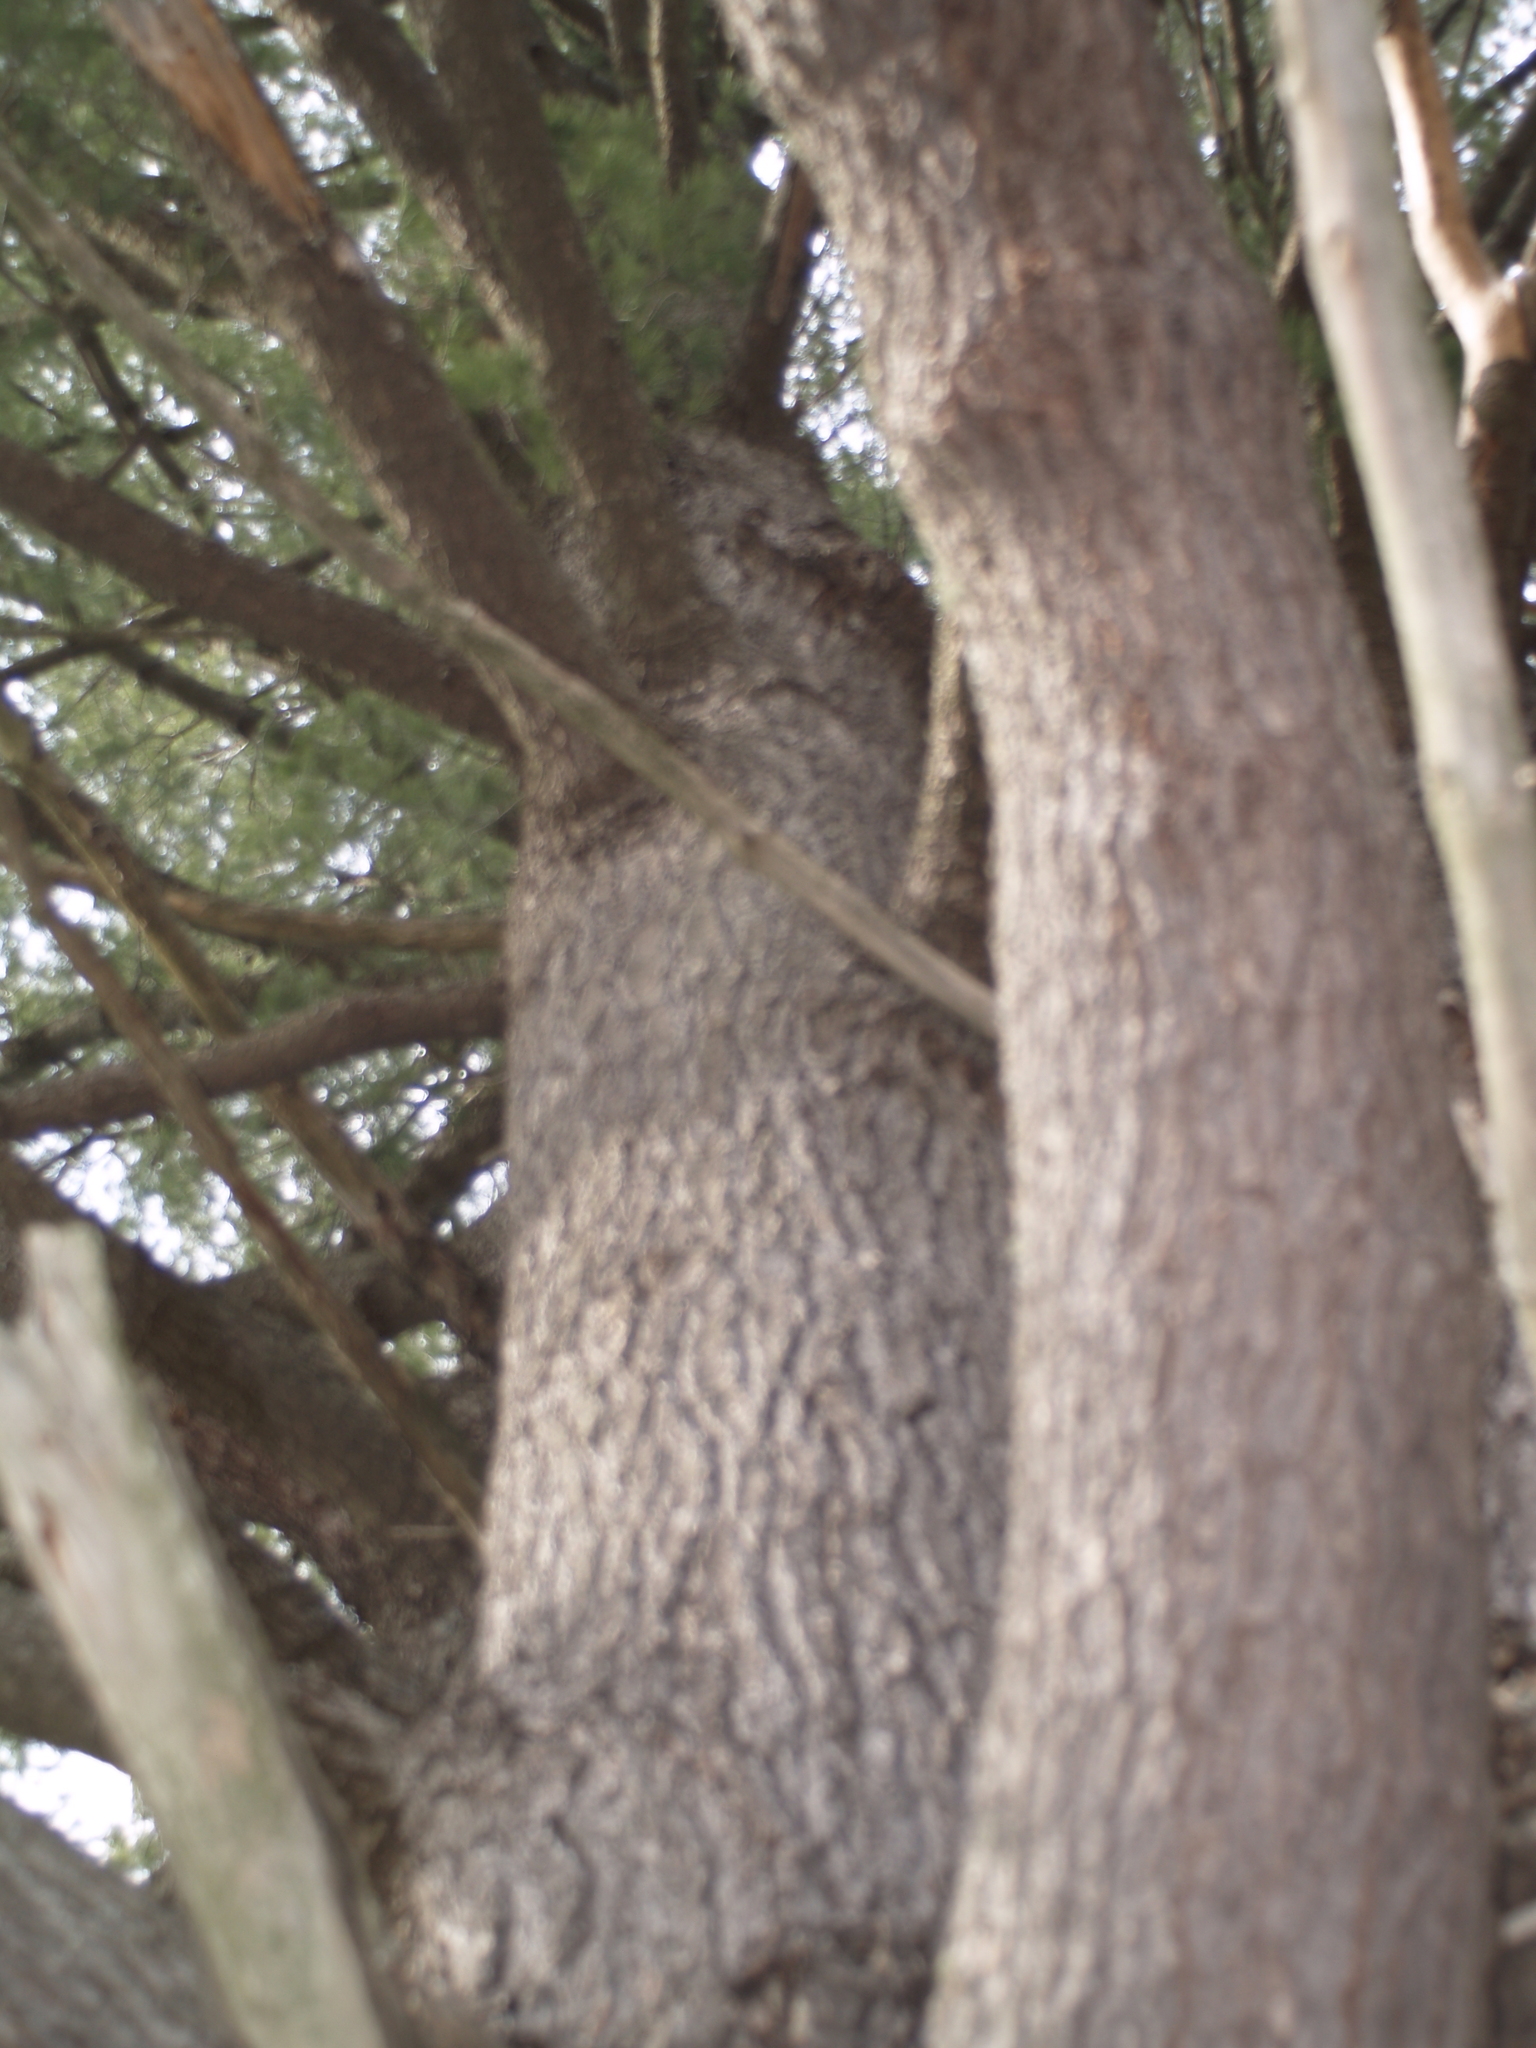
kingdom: Plantae
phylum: Tracheophyta
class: Pinopsida
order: Pinales
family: Pinaceae
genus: Pinus
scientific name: Pinus strobus
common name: Weymouth pine
